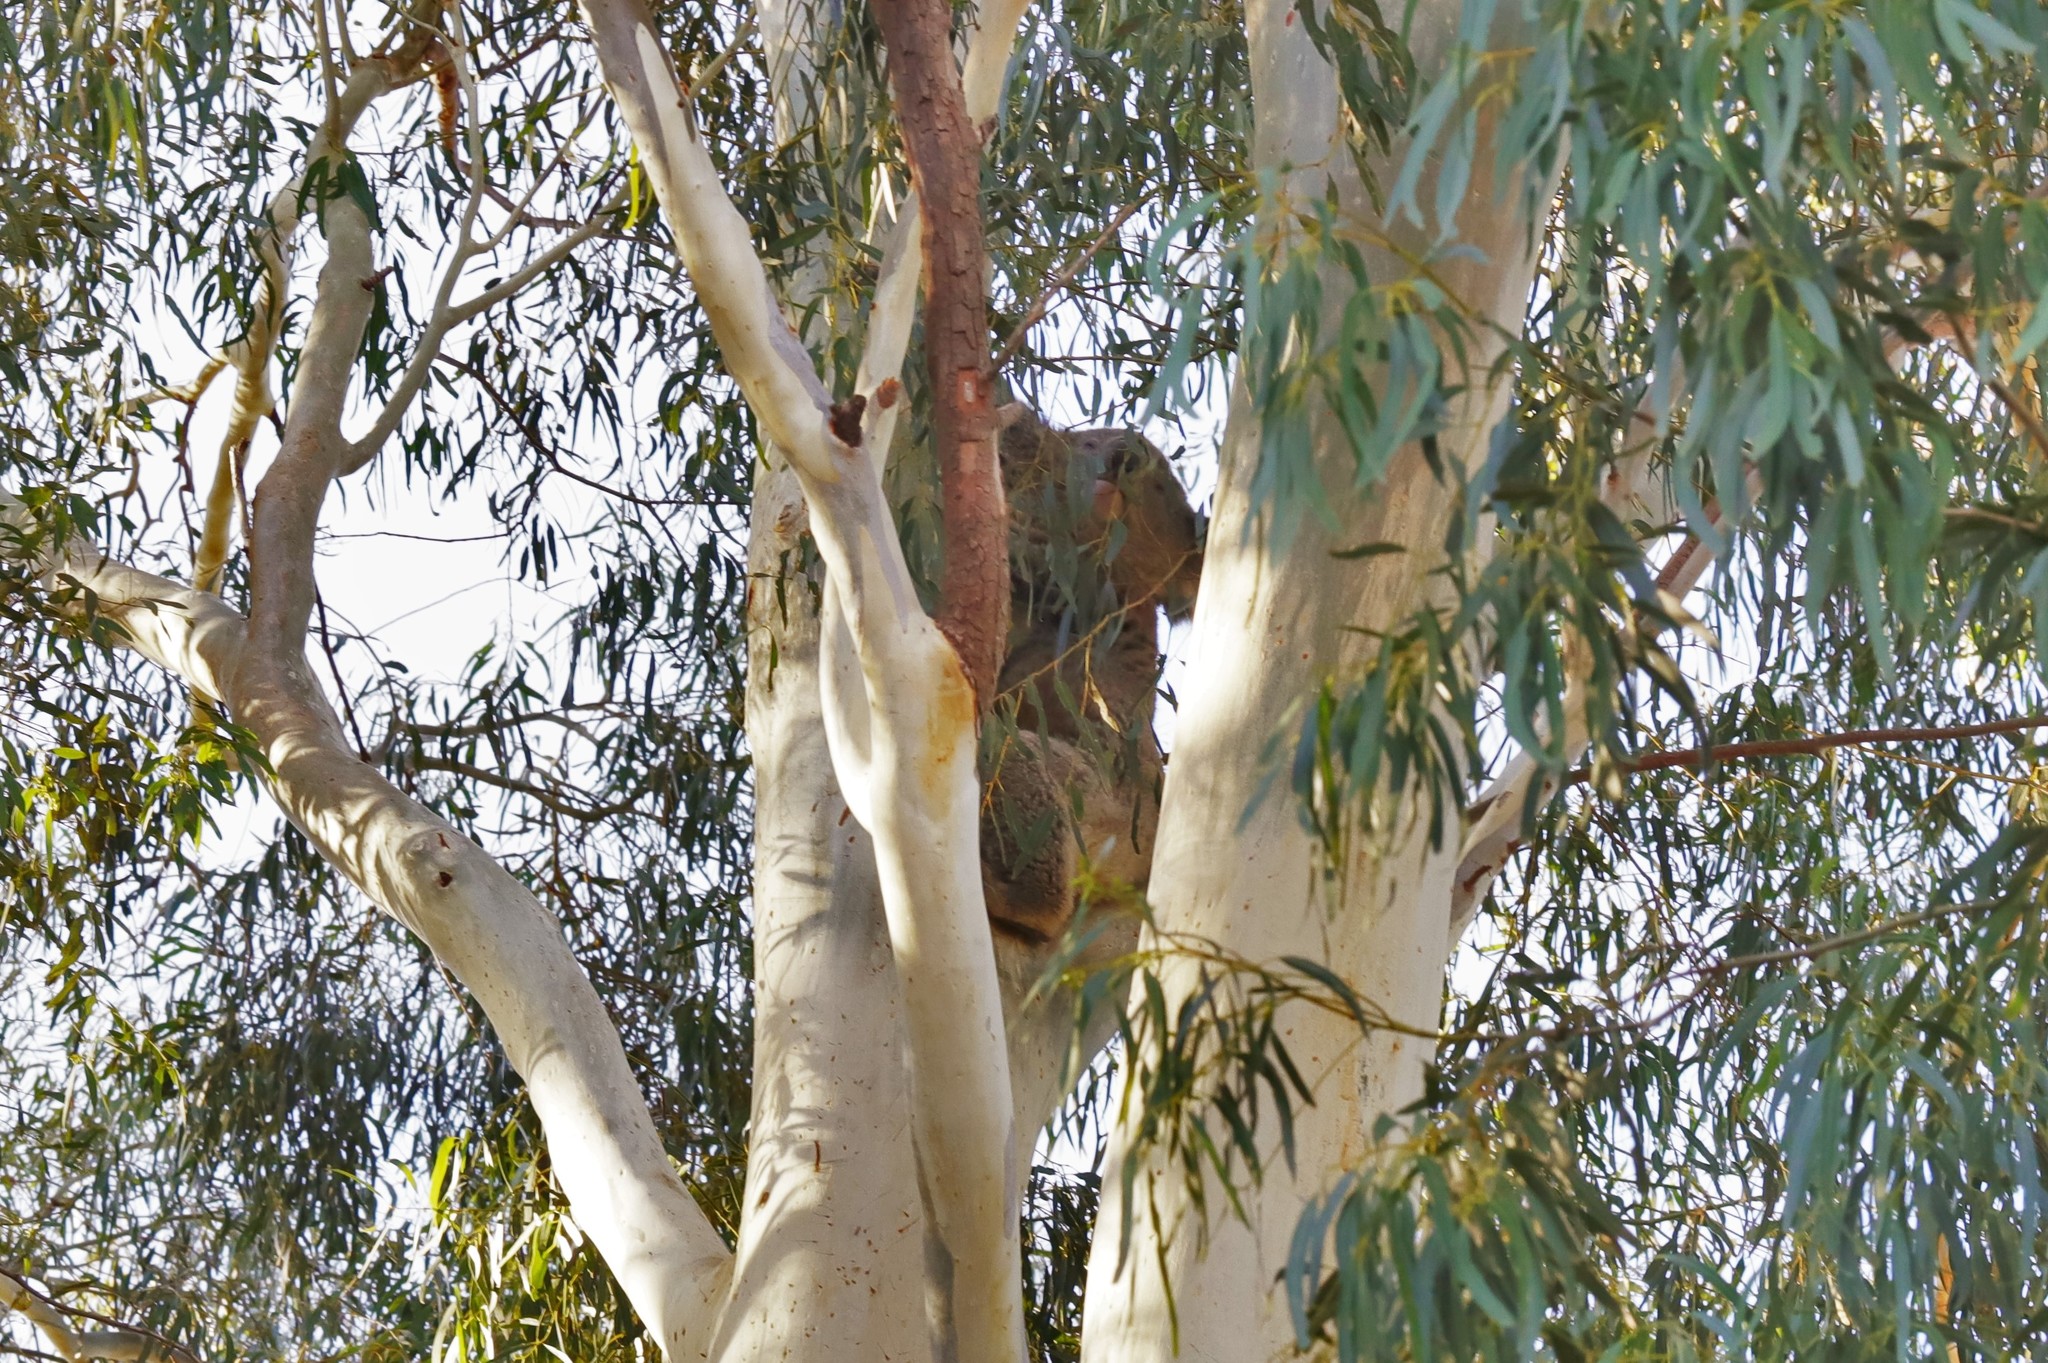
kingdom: Animalia
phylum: Chordata
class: Mammalia
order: Diprotodontia
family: Phascolarctidae
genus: Phascolarctos
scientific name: Phascolarctos cinereus
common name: Koala
